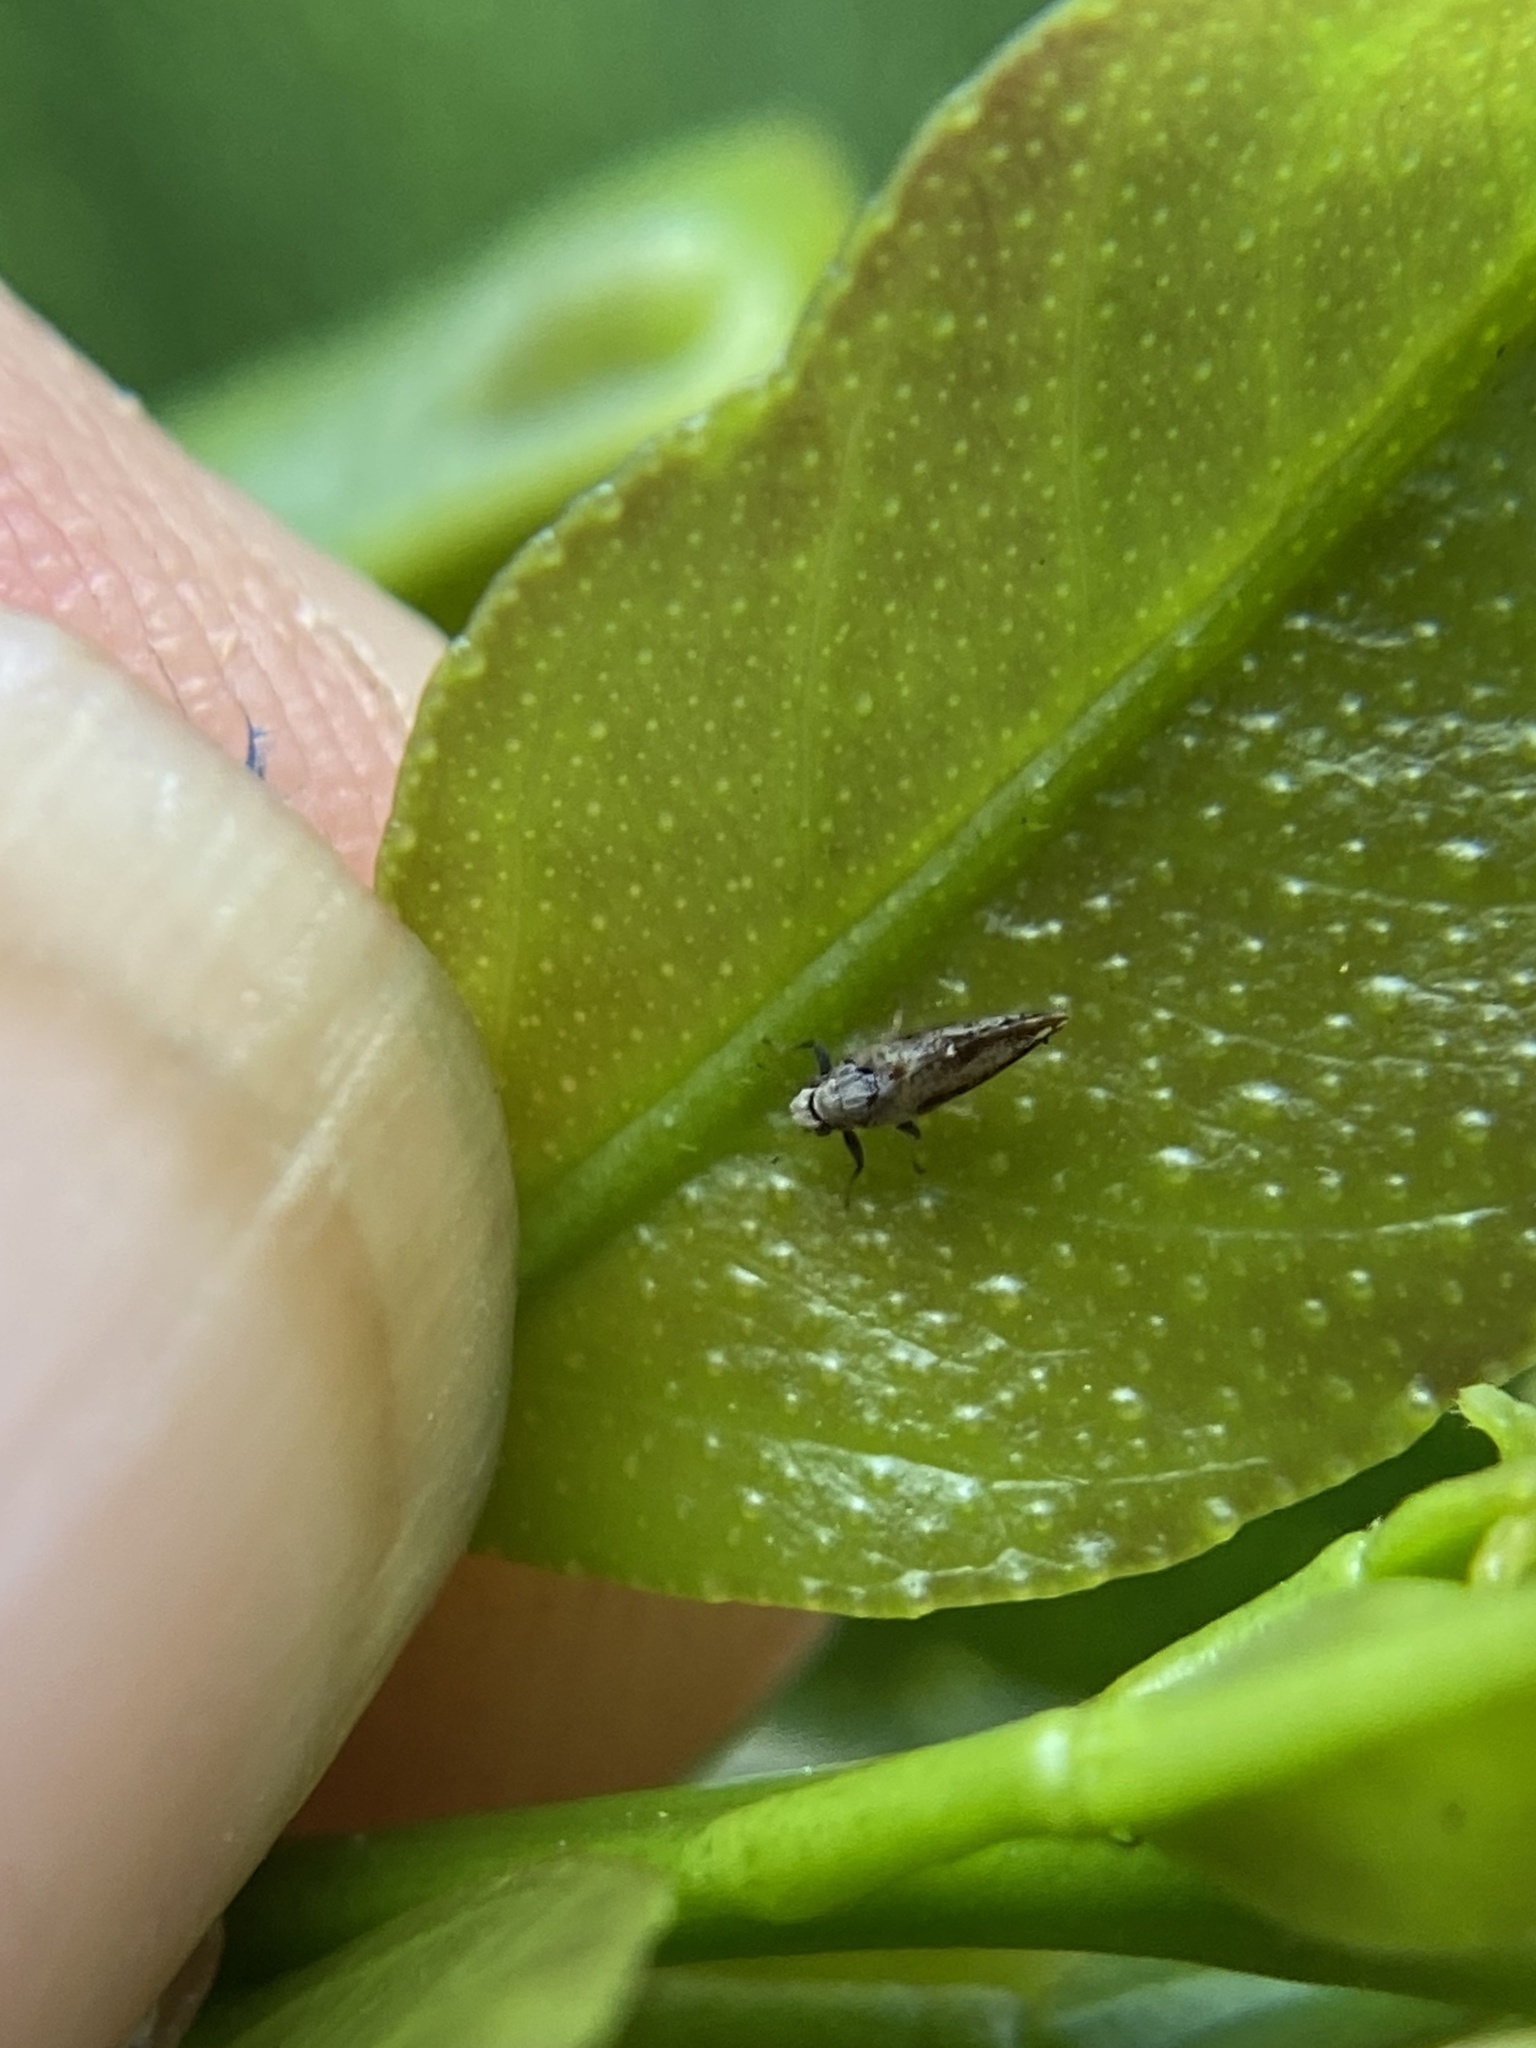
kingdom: Animalia
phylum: Arthropoda
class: Insecta
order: Hemiptera
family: Liviidae
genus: Diaphorina
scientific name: Diaphorina citri
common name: Asian citrus psyllid
